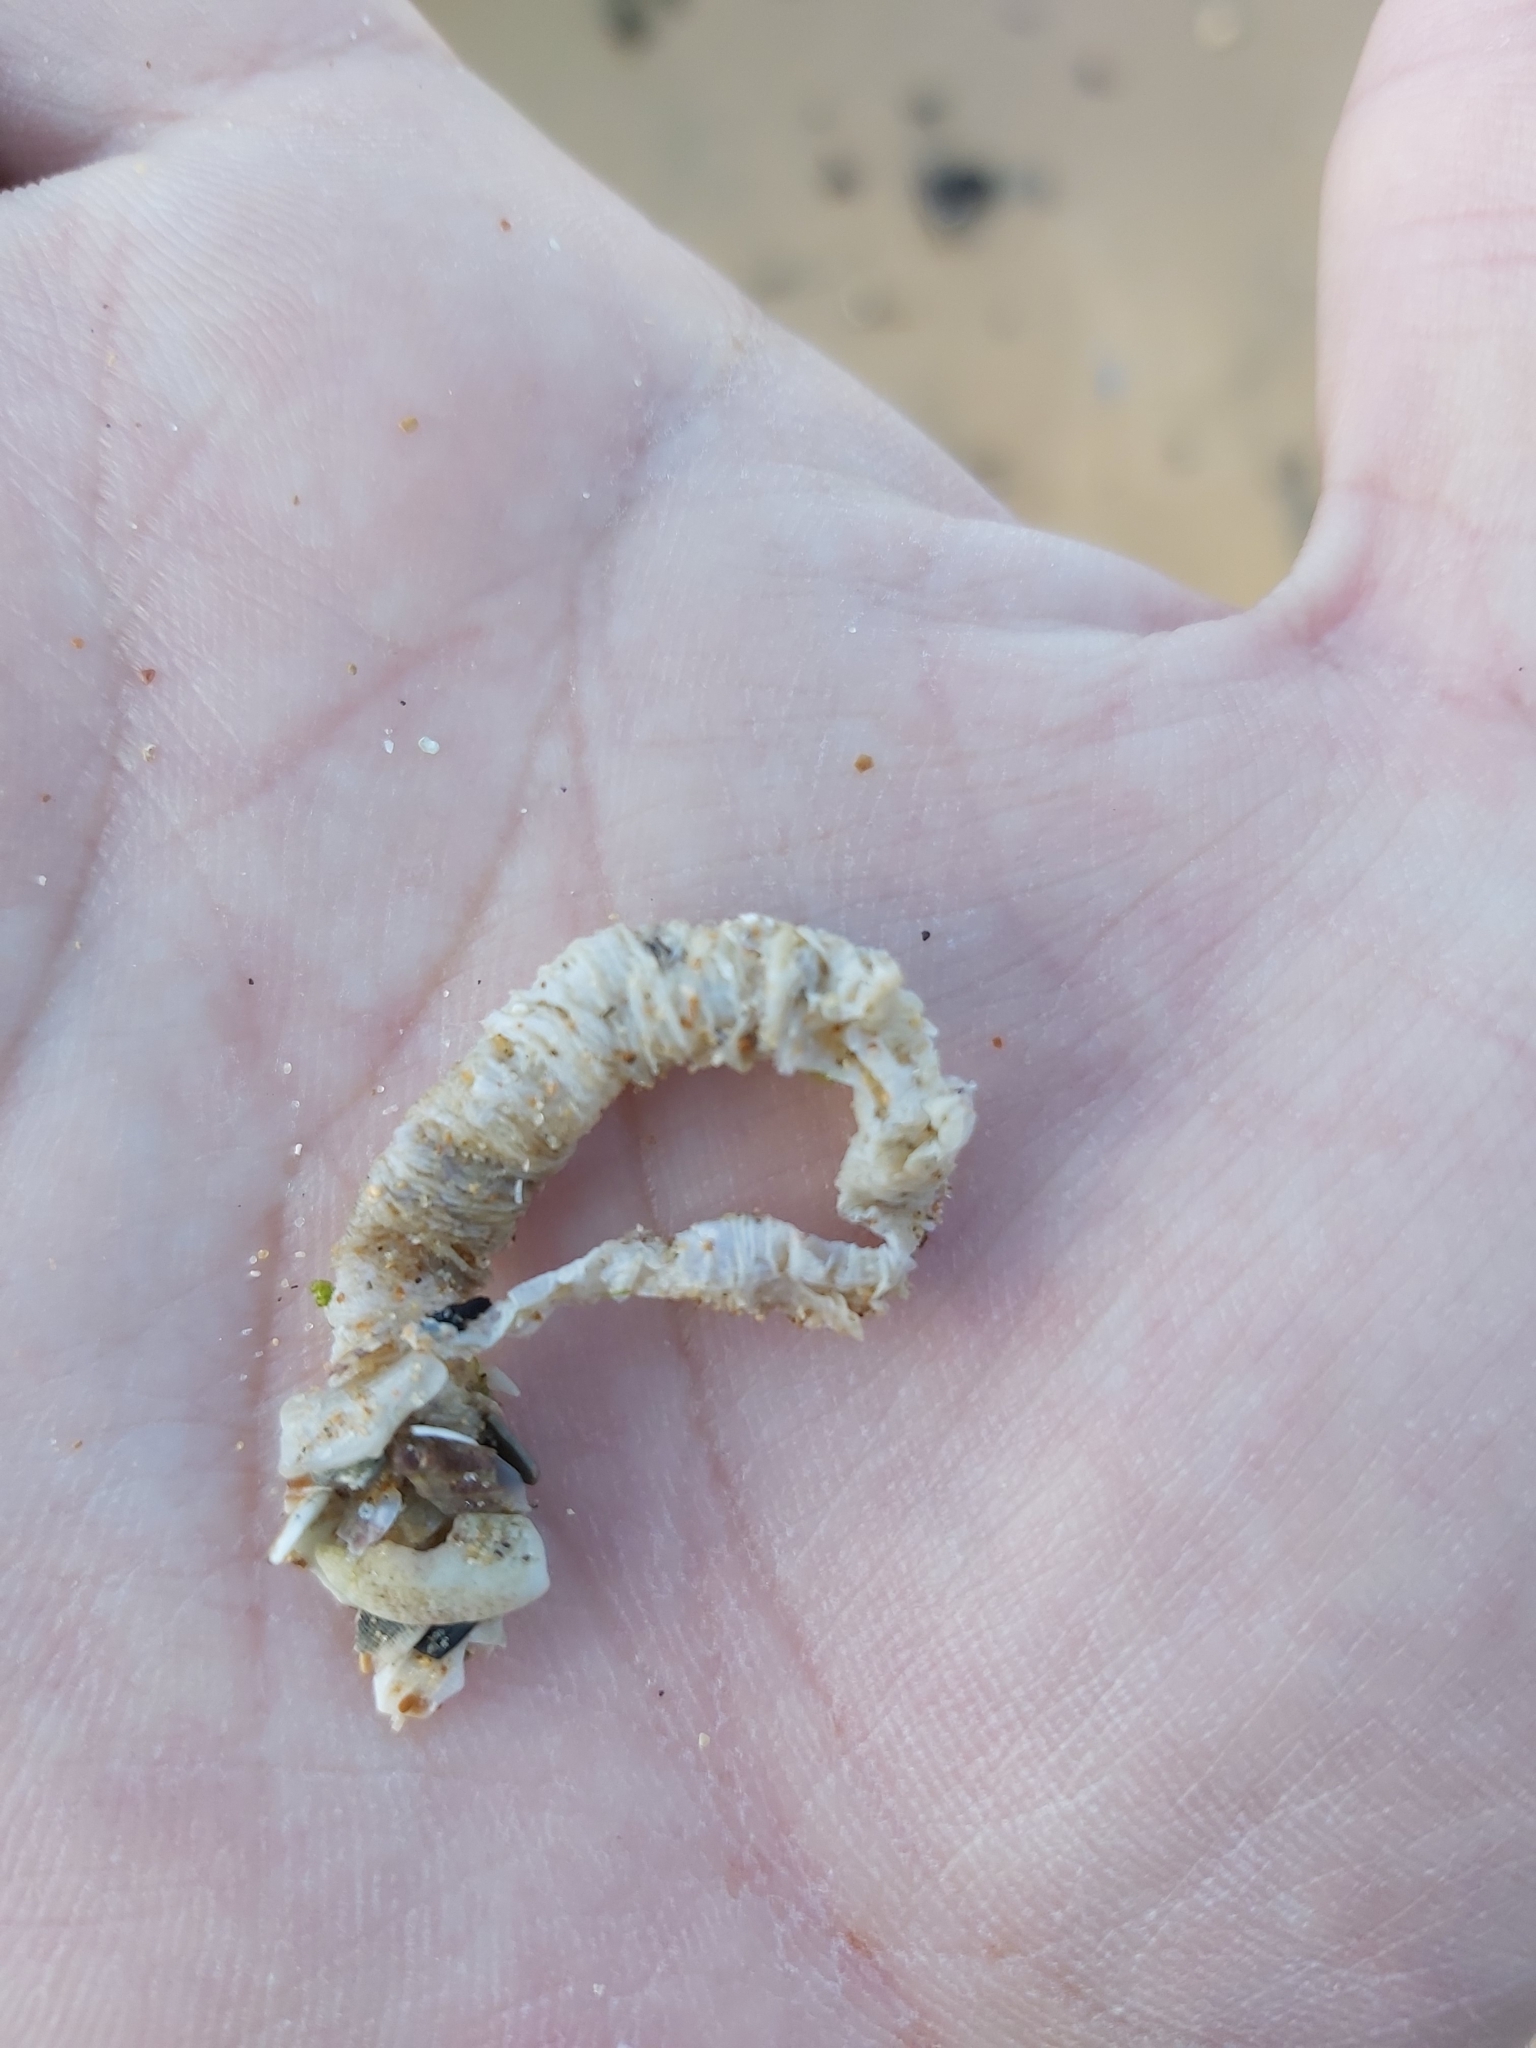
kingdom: Animalia
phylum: Annelida
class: Polychaeta
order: Eunicida
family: Onuphidae
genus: Diopatra
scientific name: Diopatra dentata
